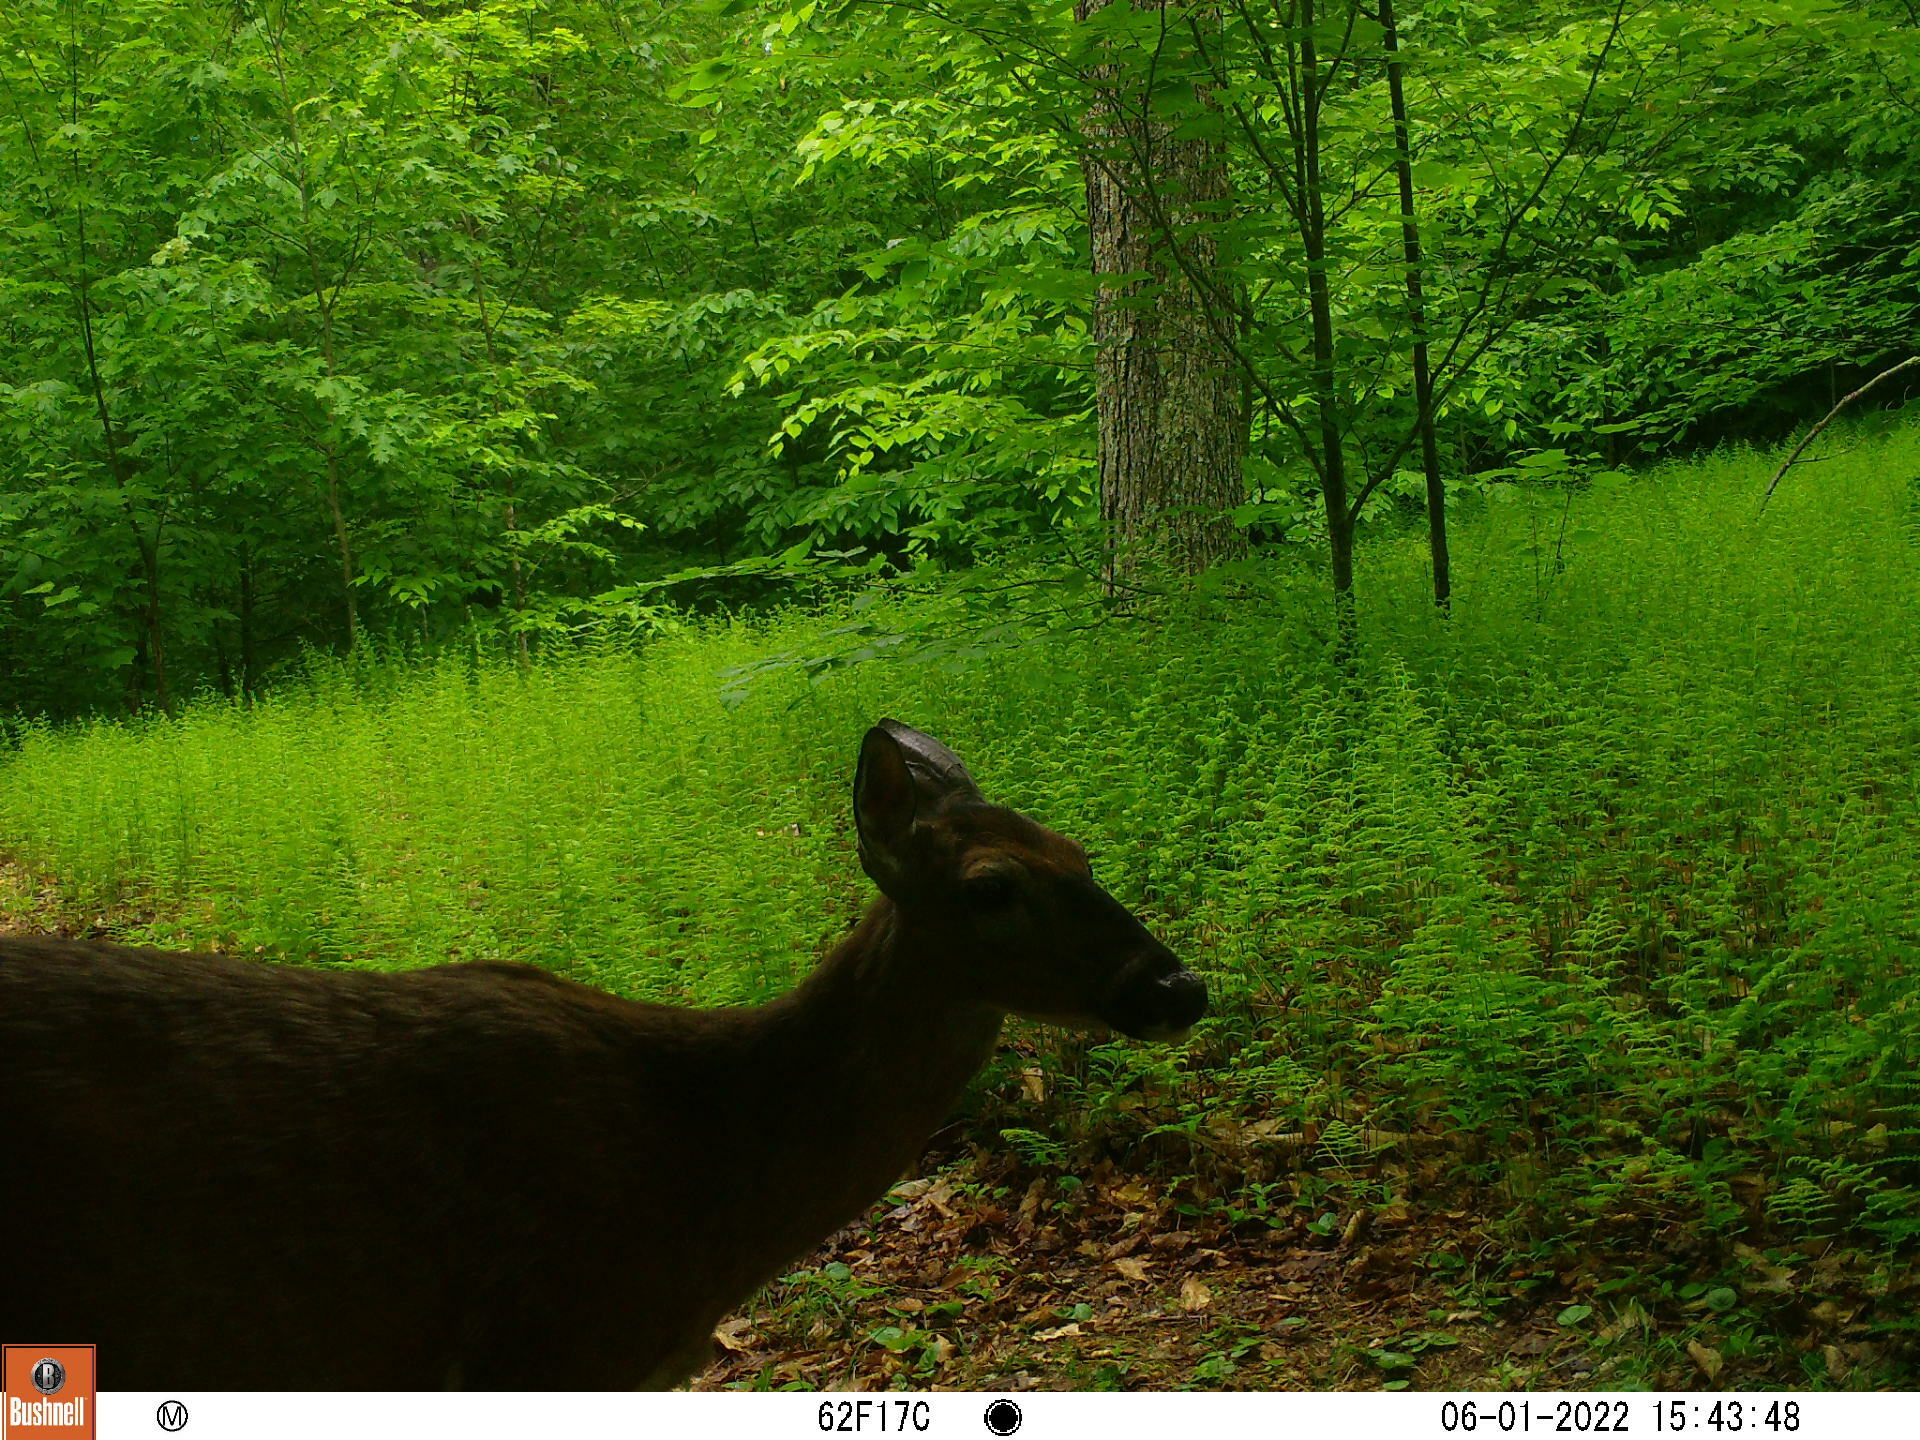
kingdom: Animalia
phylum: Chordata
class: Mammalia
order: Artiodactyla
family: Cervidae
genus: Odocoileus
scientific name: Odocoileus virginianus
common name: White-tailed deer
